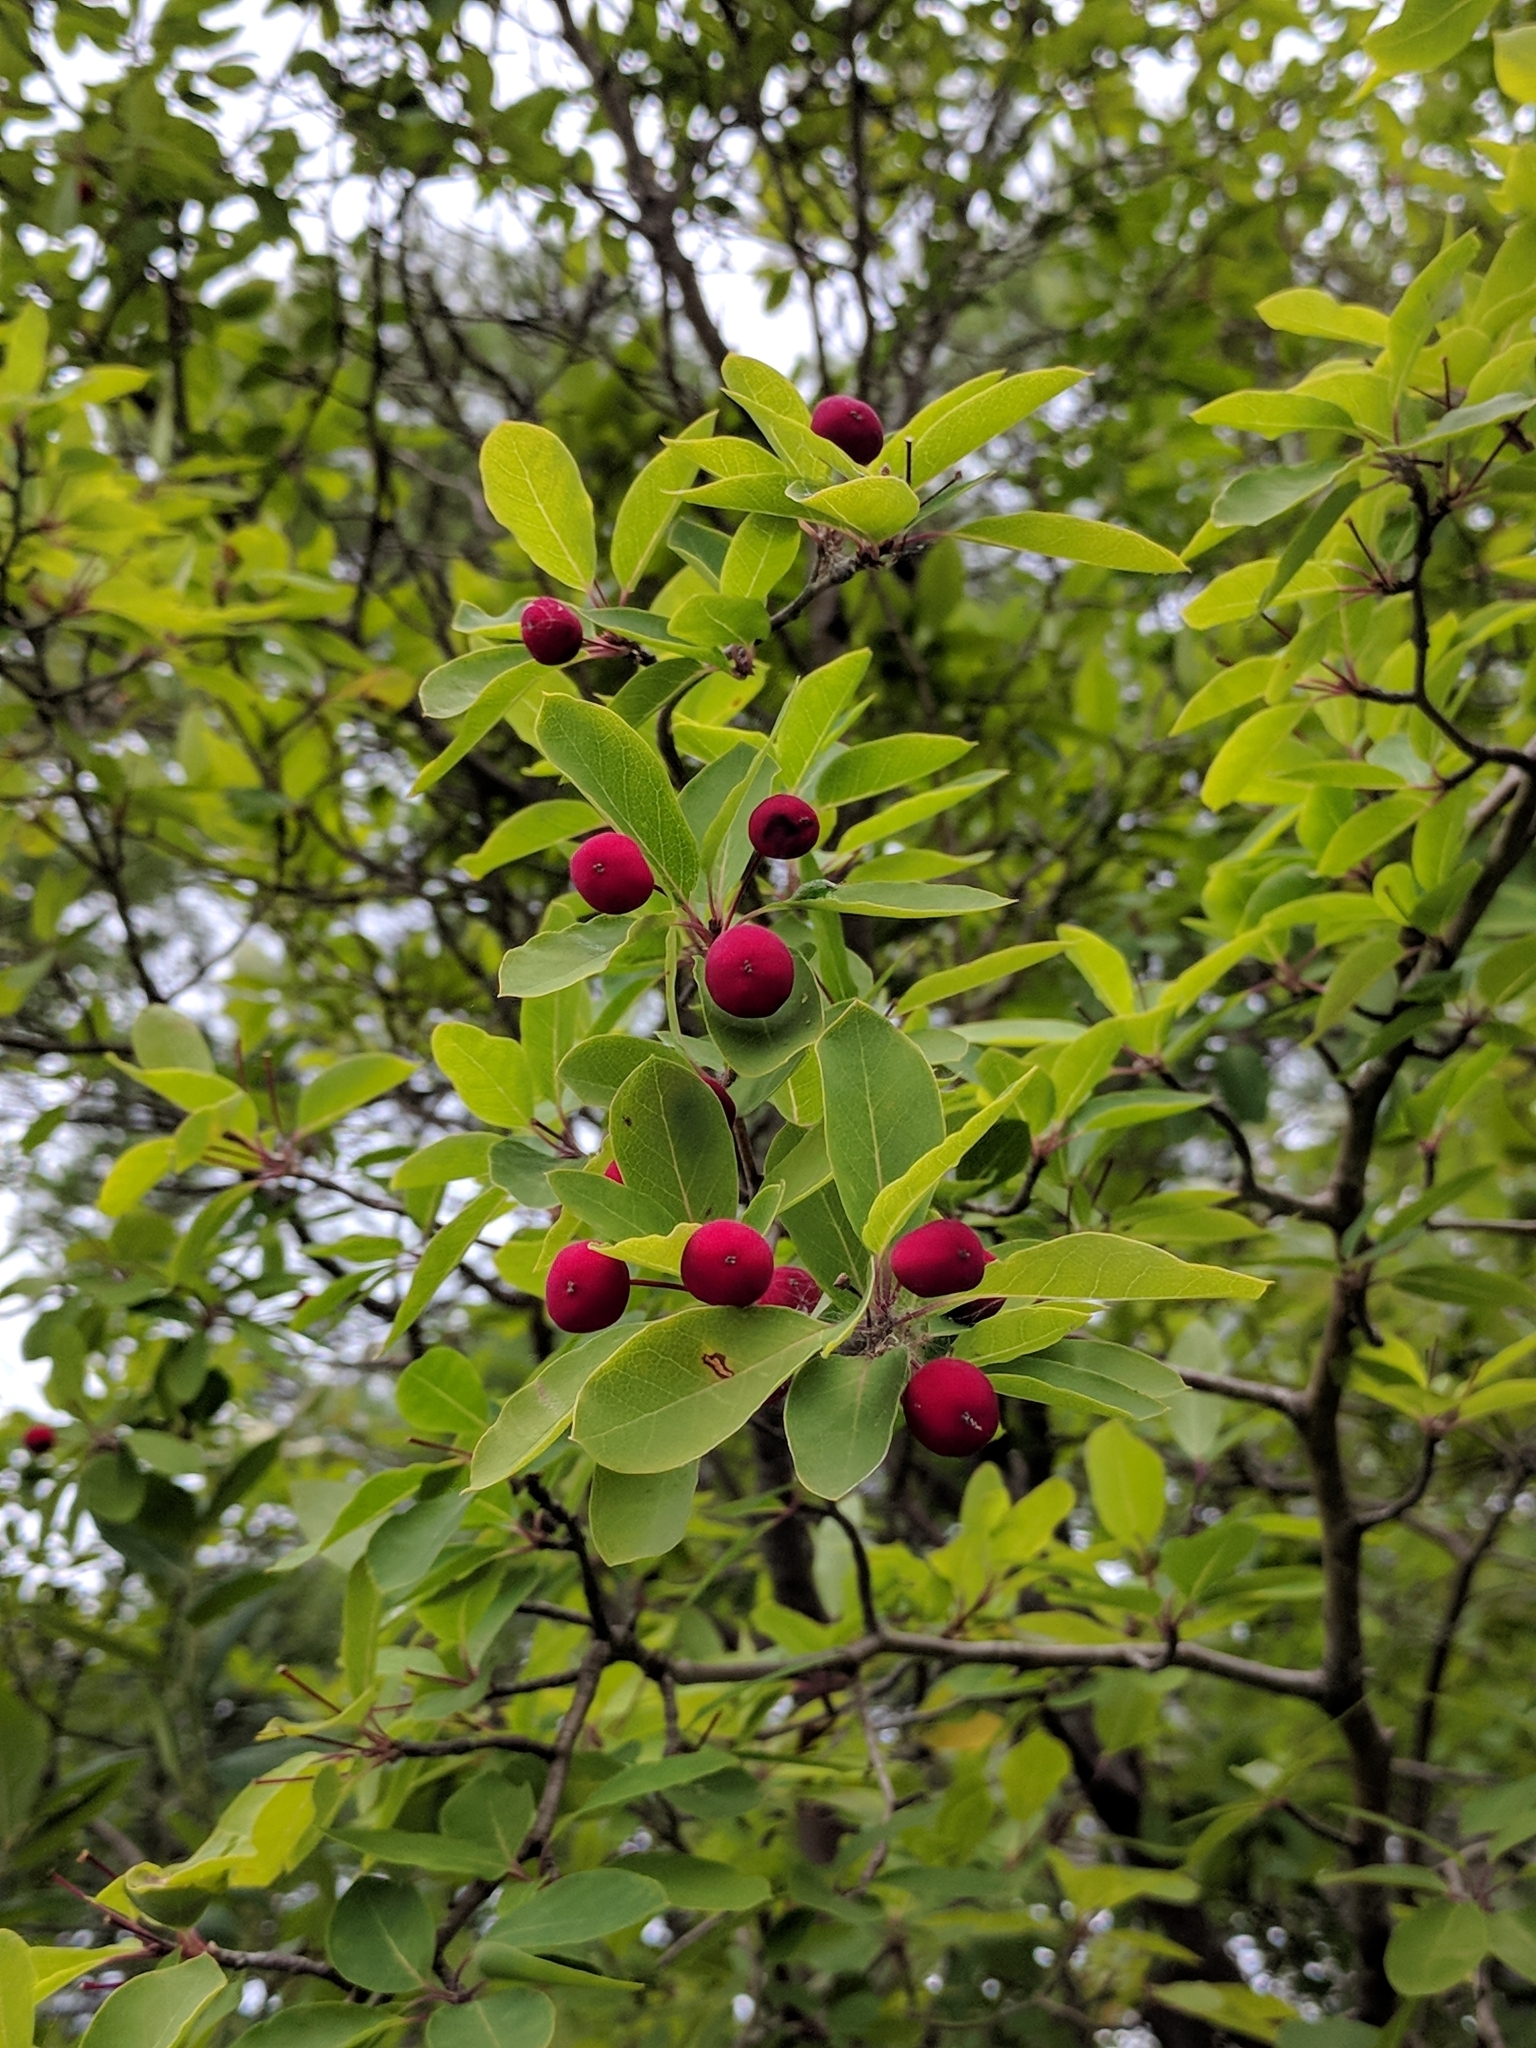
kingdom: Plantae
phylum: Tracheophyta
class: Magnoliopsida
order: Aquifoliales
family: Aquifoliaceae
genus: Ilex
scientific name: Ilex mucronata
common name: Catberry
